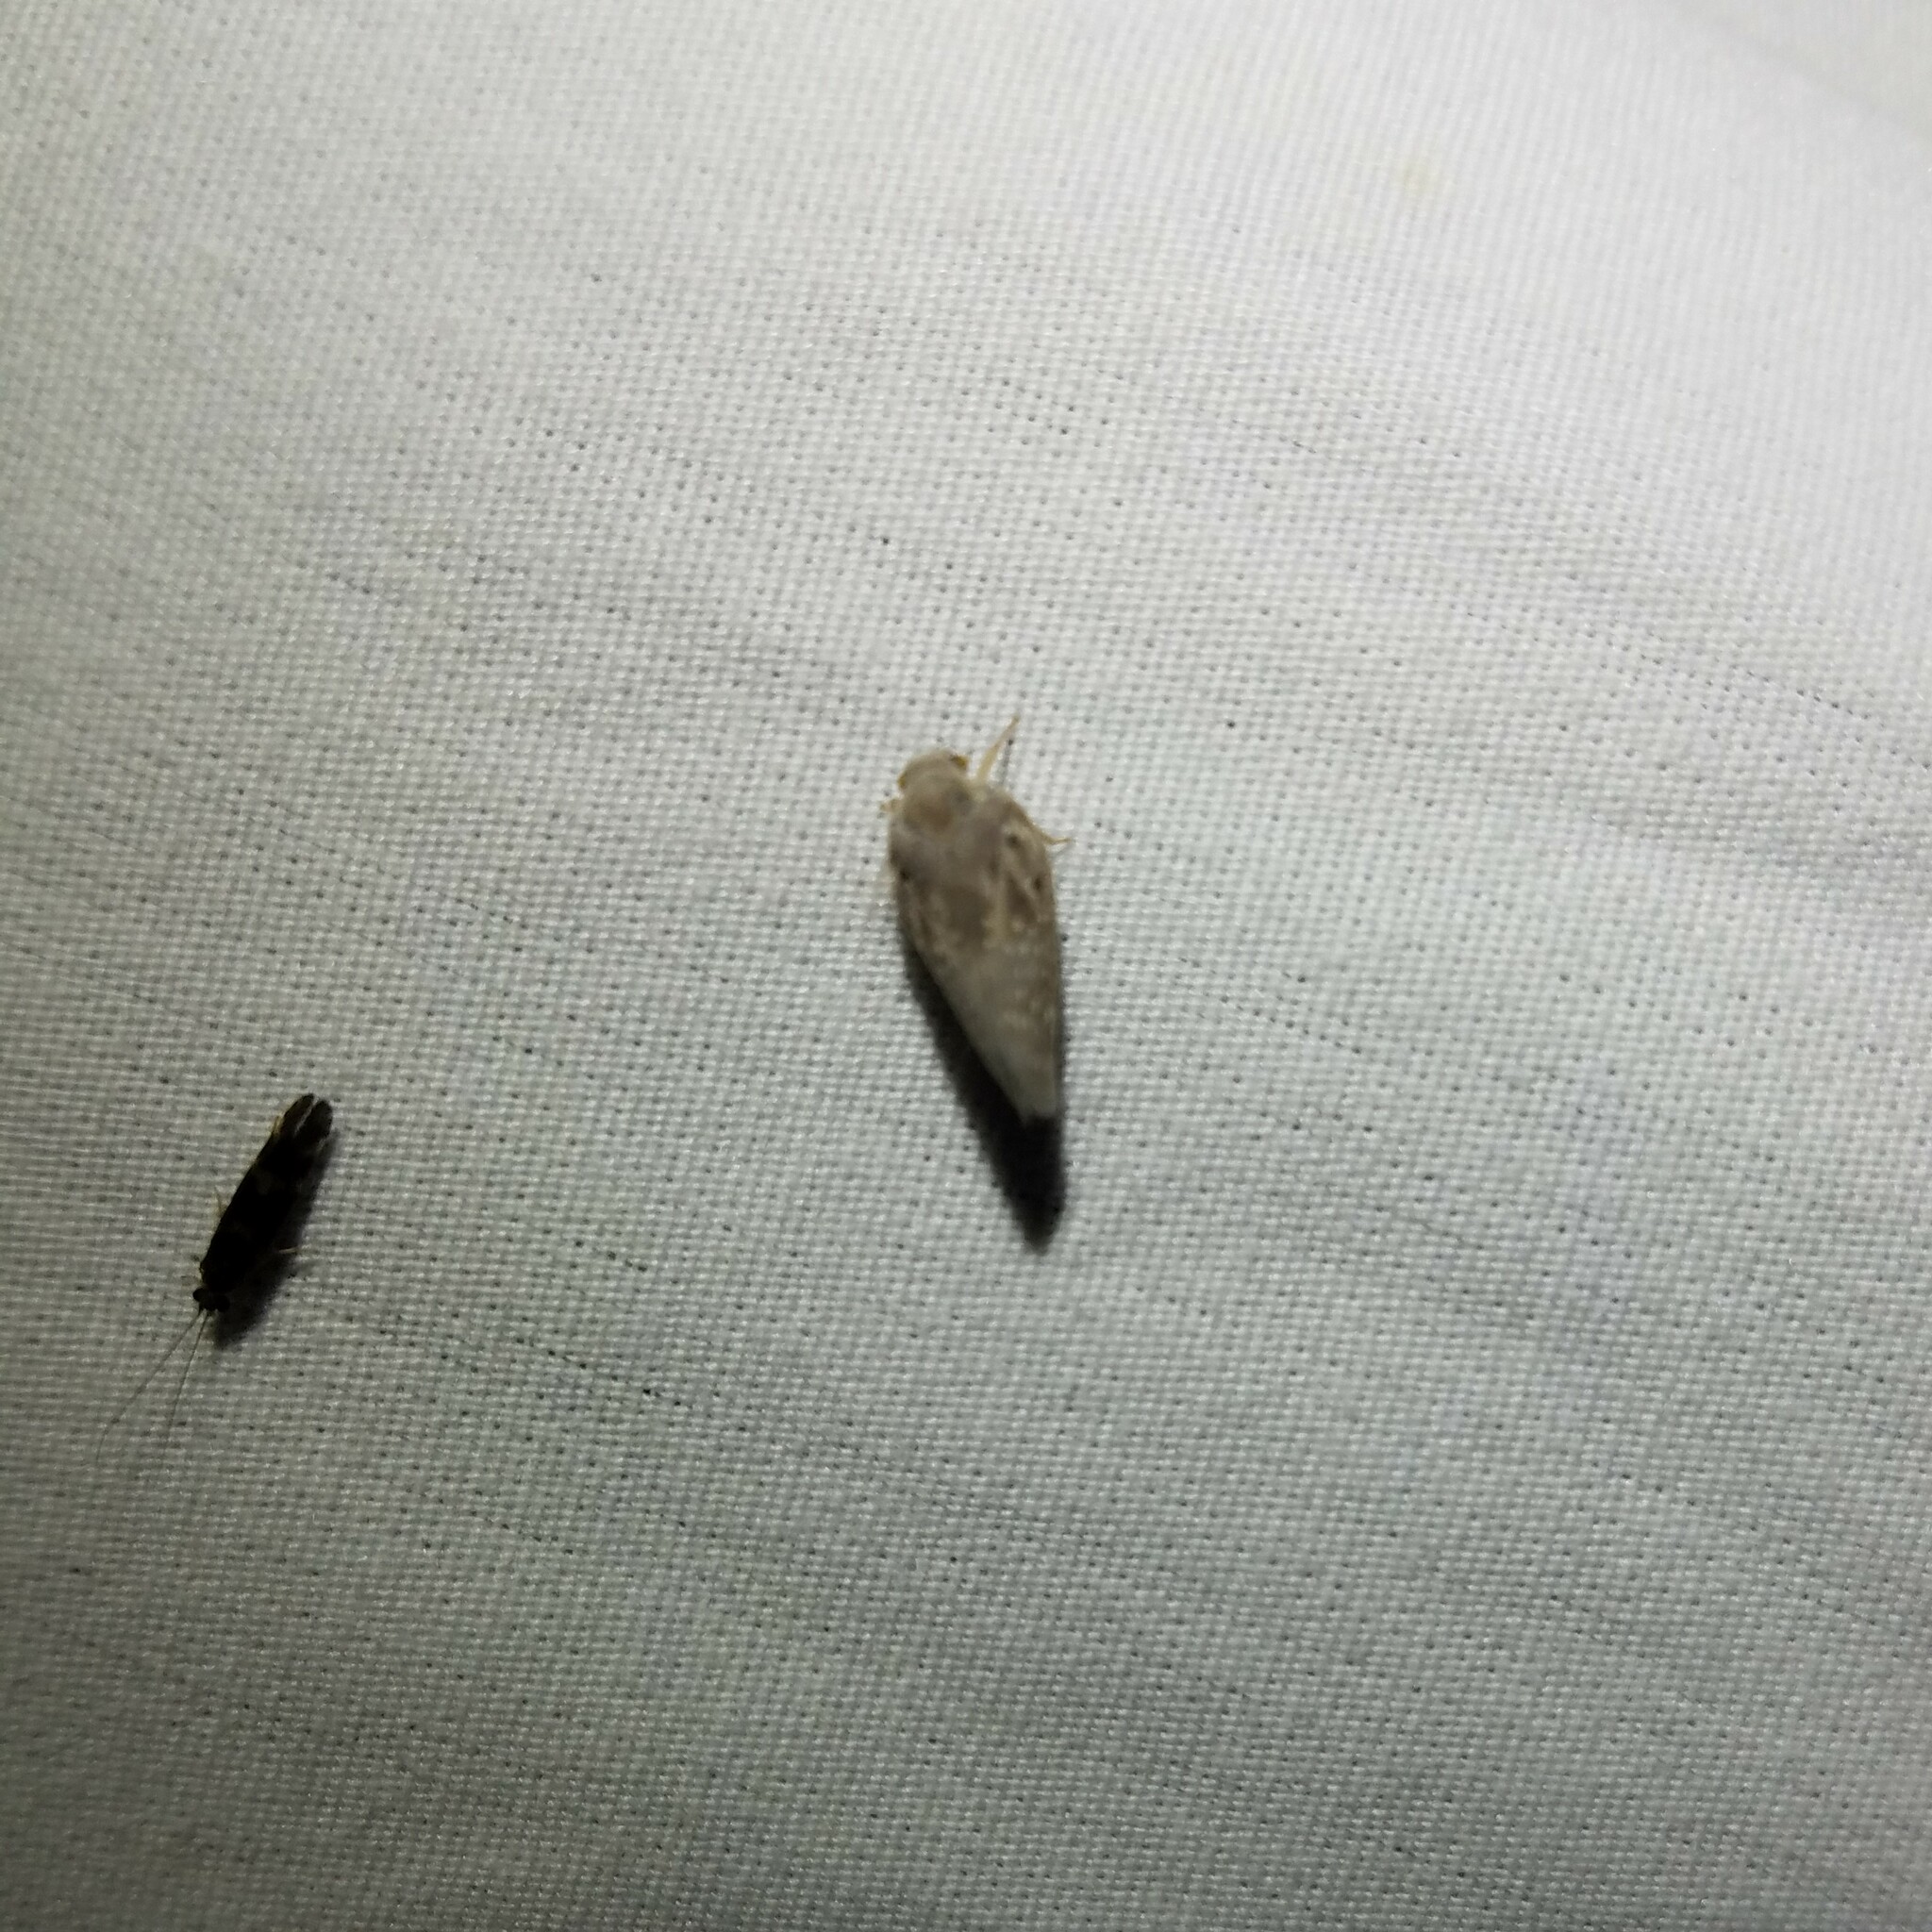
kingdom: Animalia
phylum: Arthropoda
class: Insecta
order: Hemiptera
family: Flatidae
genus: Metcalfa
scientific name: Metcalfa pruinosa
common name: Citrus flatid planthopper
